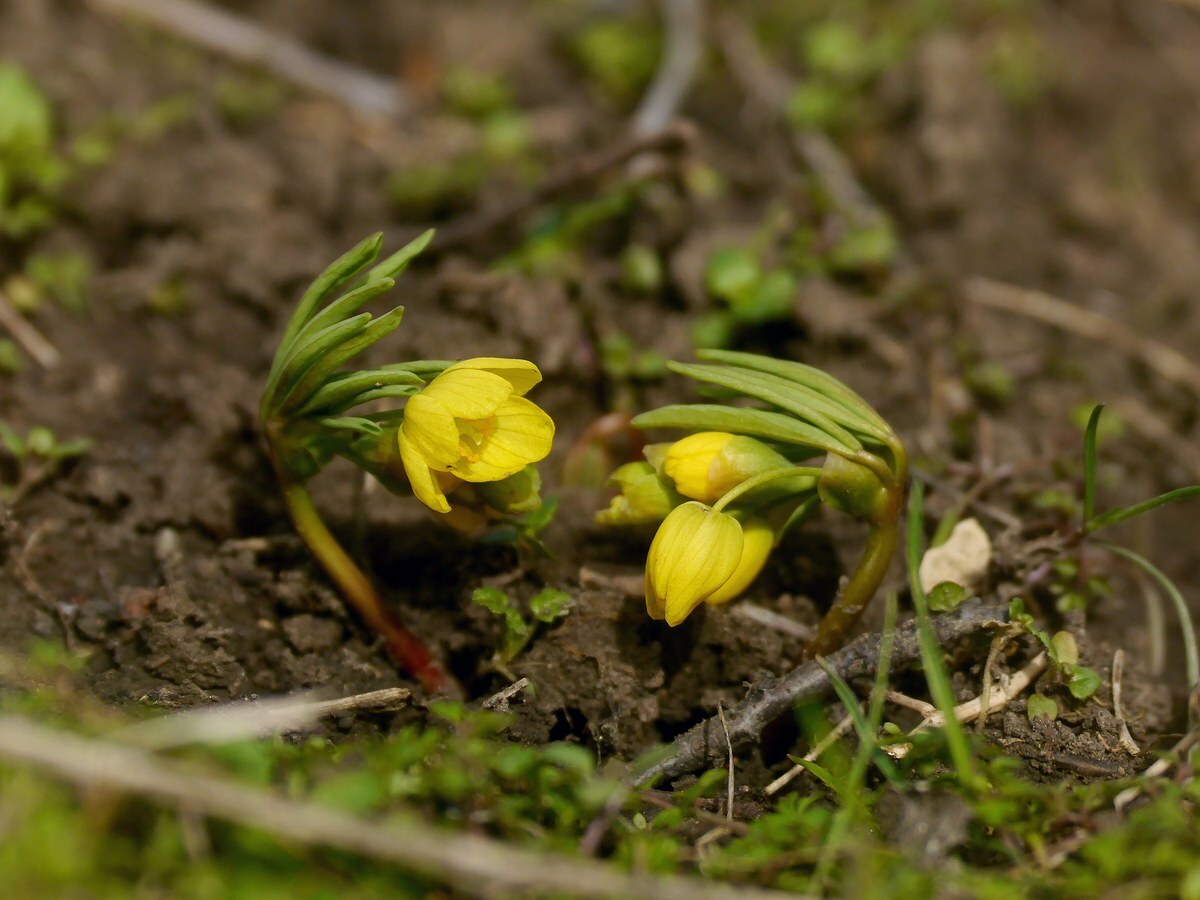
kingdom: Plantae
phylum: Tracheophyta
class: Magnoliopsida
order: Ranunculales
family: Berberidaceae
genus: Gymnospermium
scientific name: Gymnospermium odessanum
